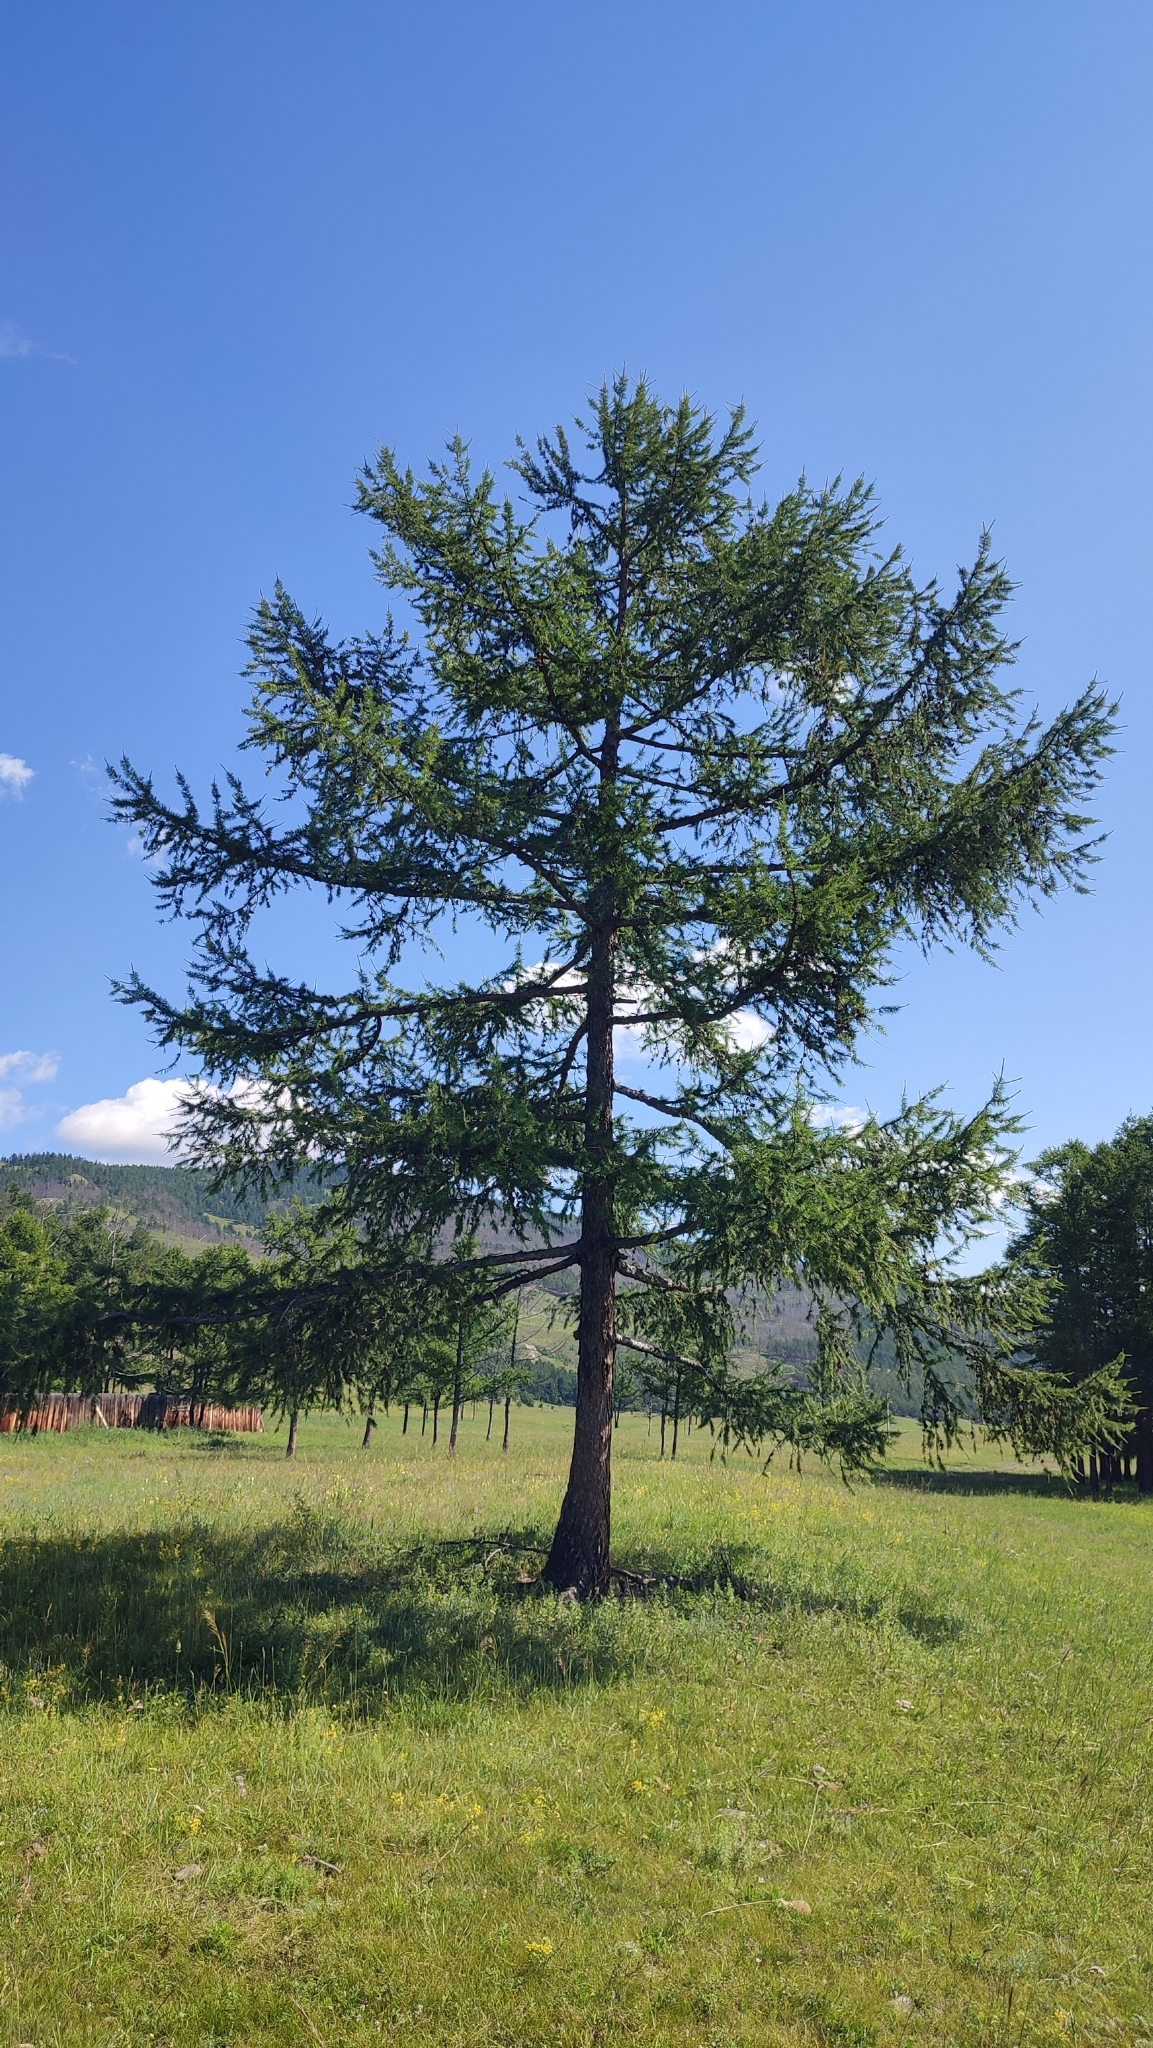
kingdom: Plantae
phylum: Tracheophyta
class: Pinopsida
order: Pinales
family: Pinaceae
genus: Larix
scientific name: Larix sibirica
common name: Siberian larch
